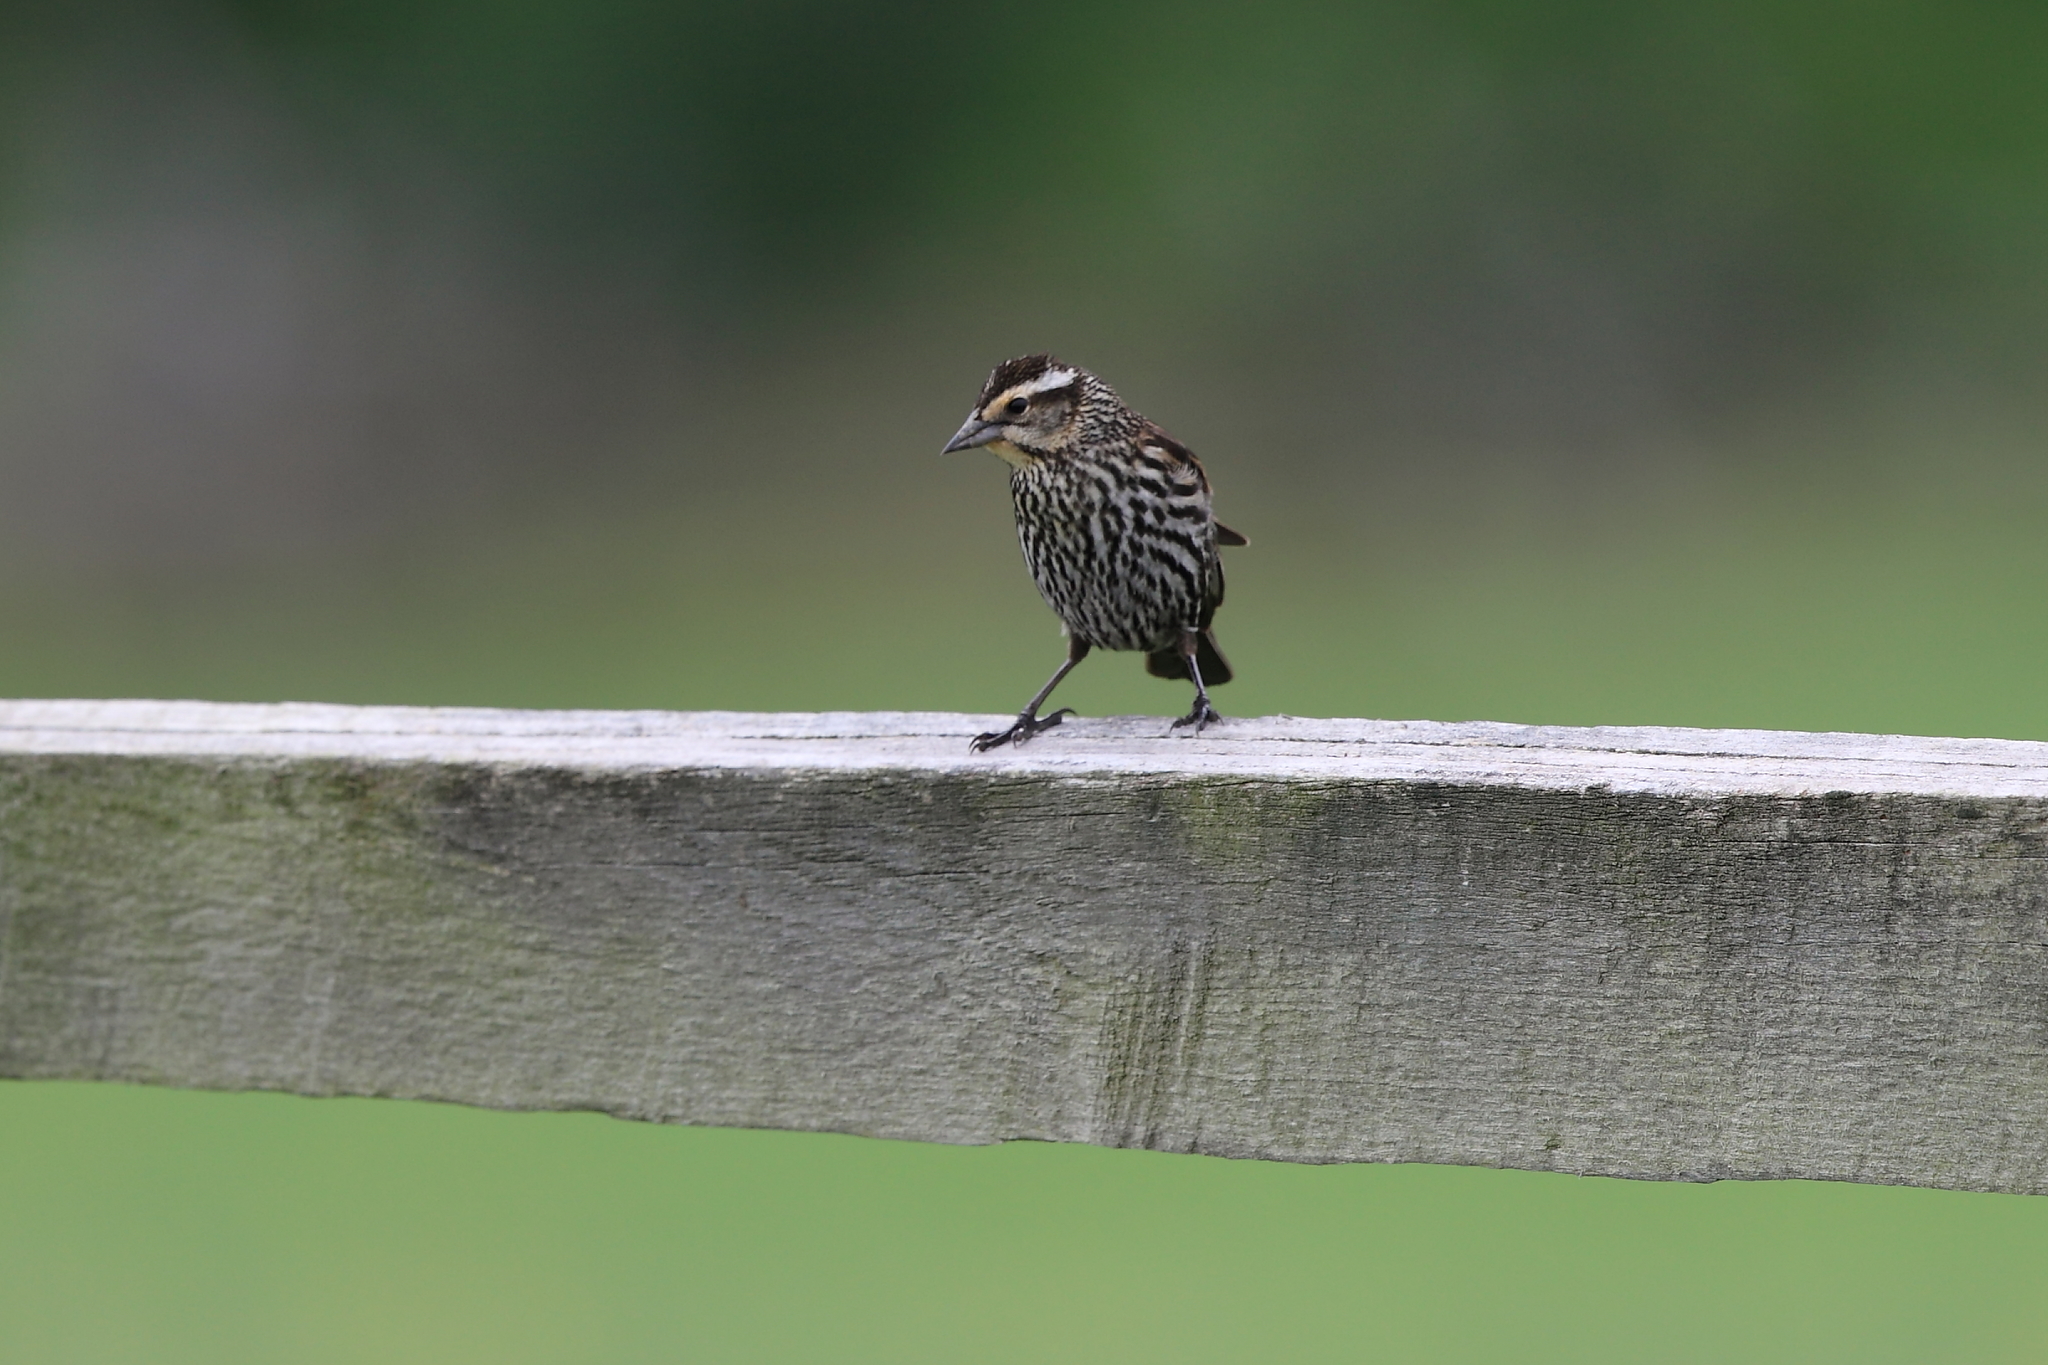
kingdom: Animalia
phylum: Chordata
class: Aves
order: Passeriformes
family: Icteridae
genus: Agelaius
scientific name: Agelaius phoeniceus
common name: Red-winged blackbird
